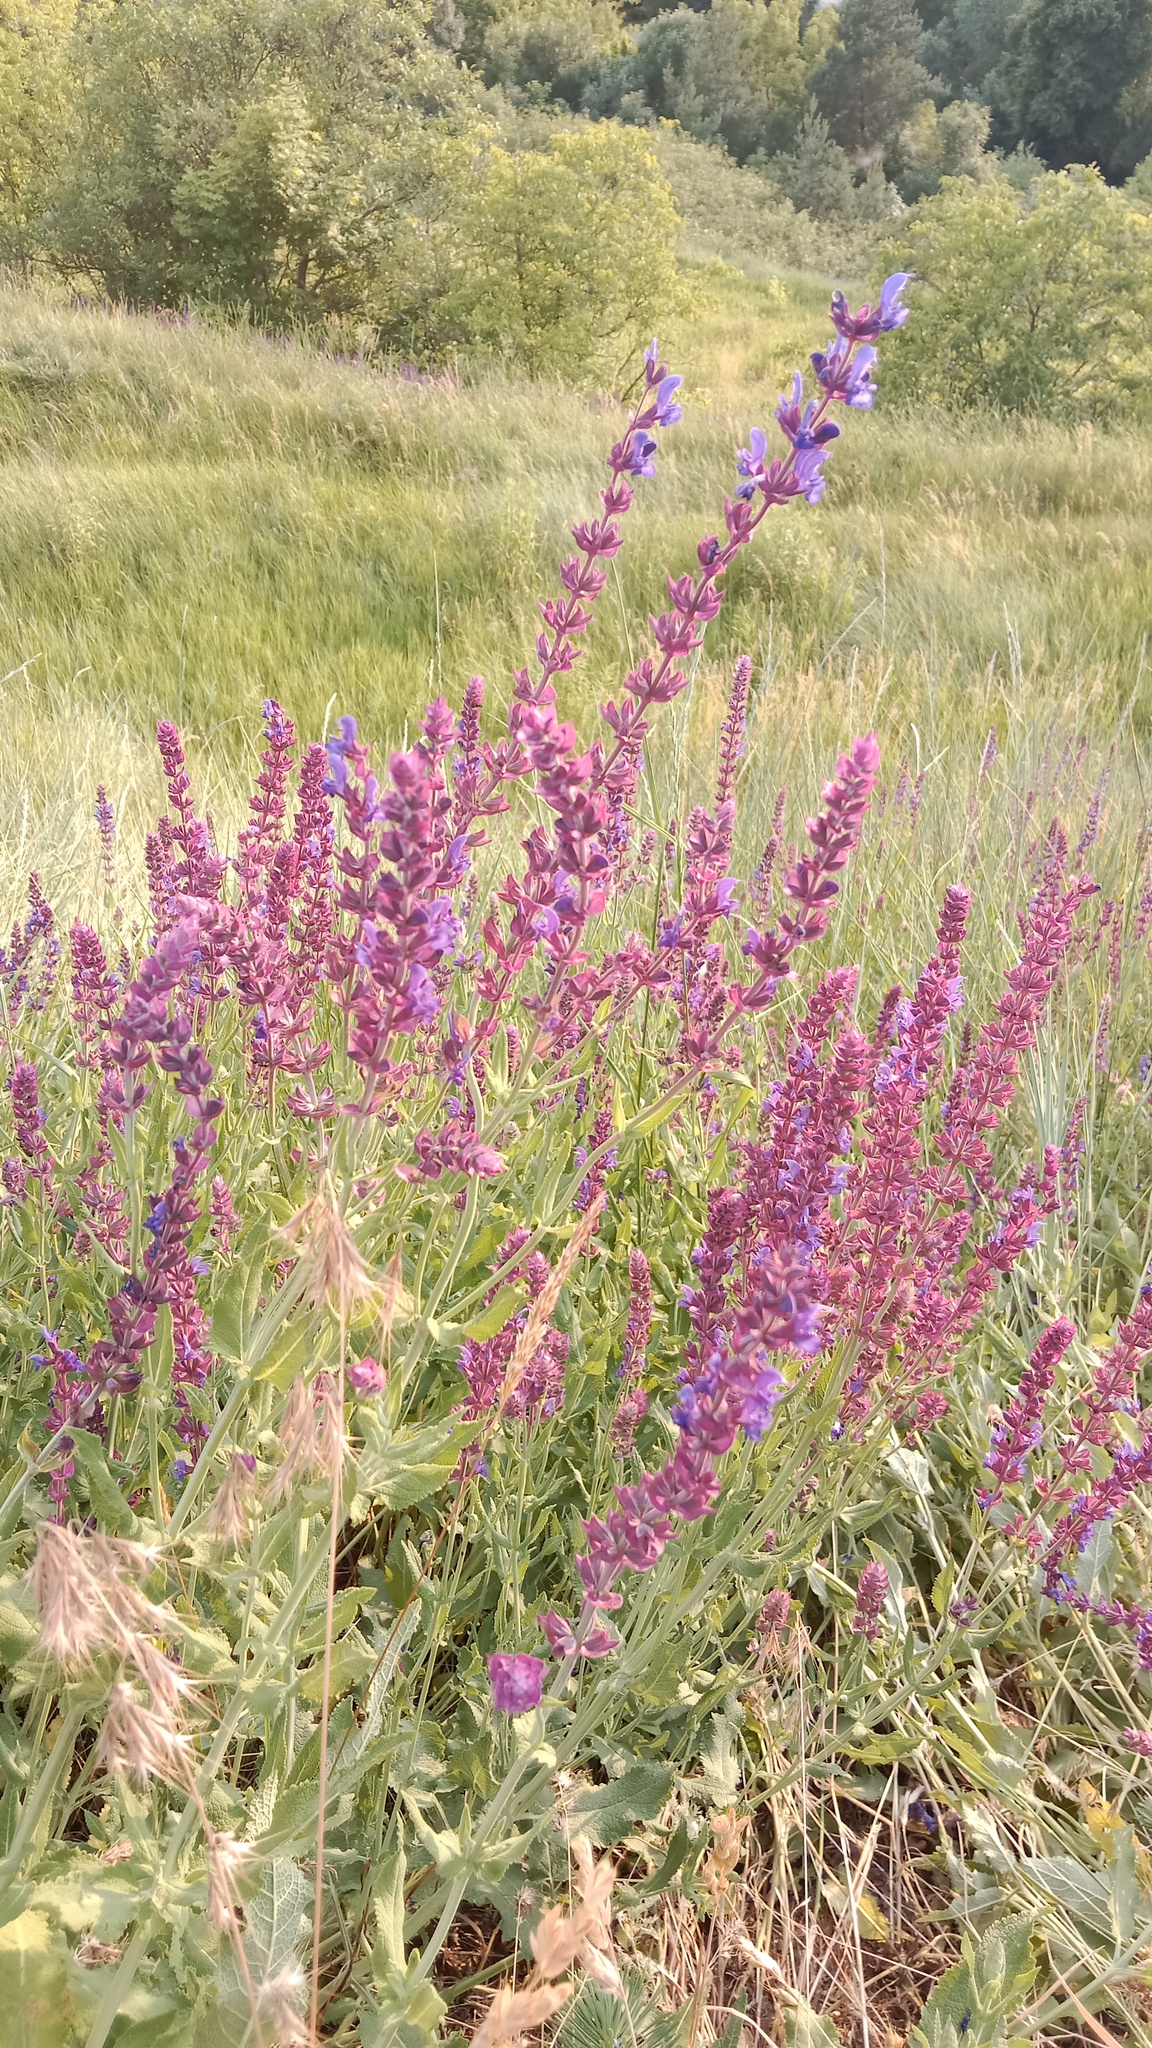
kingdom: Plantae
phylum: Tracheophyta
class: Magnoliopsida
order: Lamiales
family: Lamiaceae
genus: Salvia
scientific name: Salvia nemorosa
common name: Balkan clary
